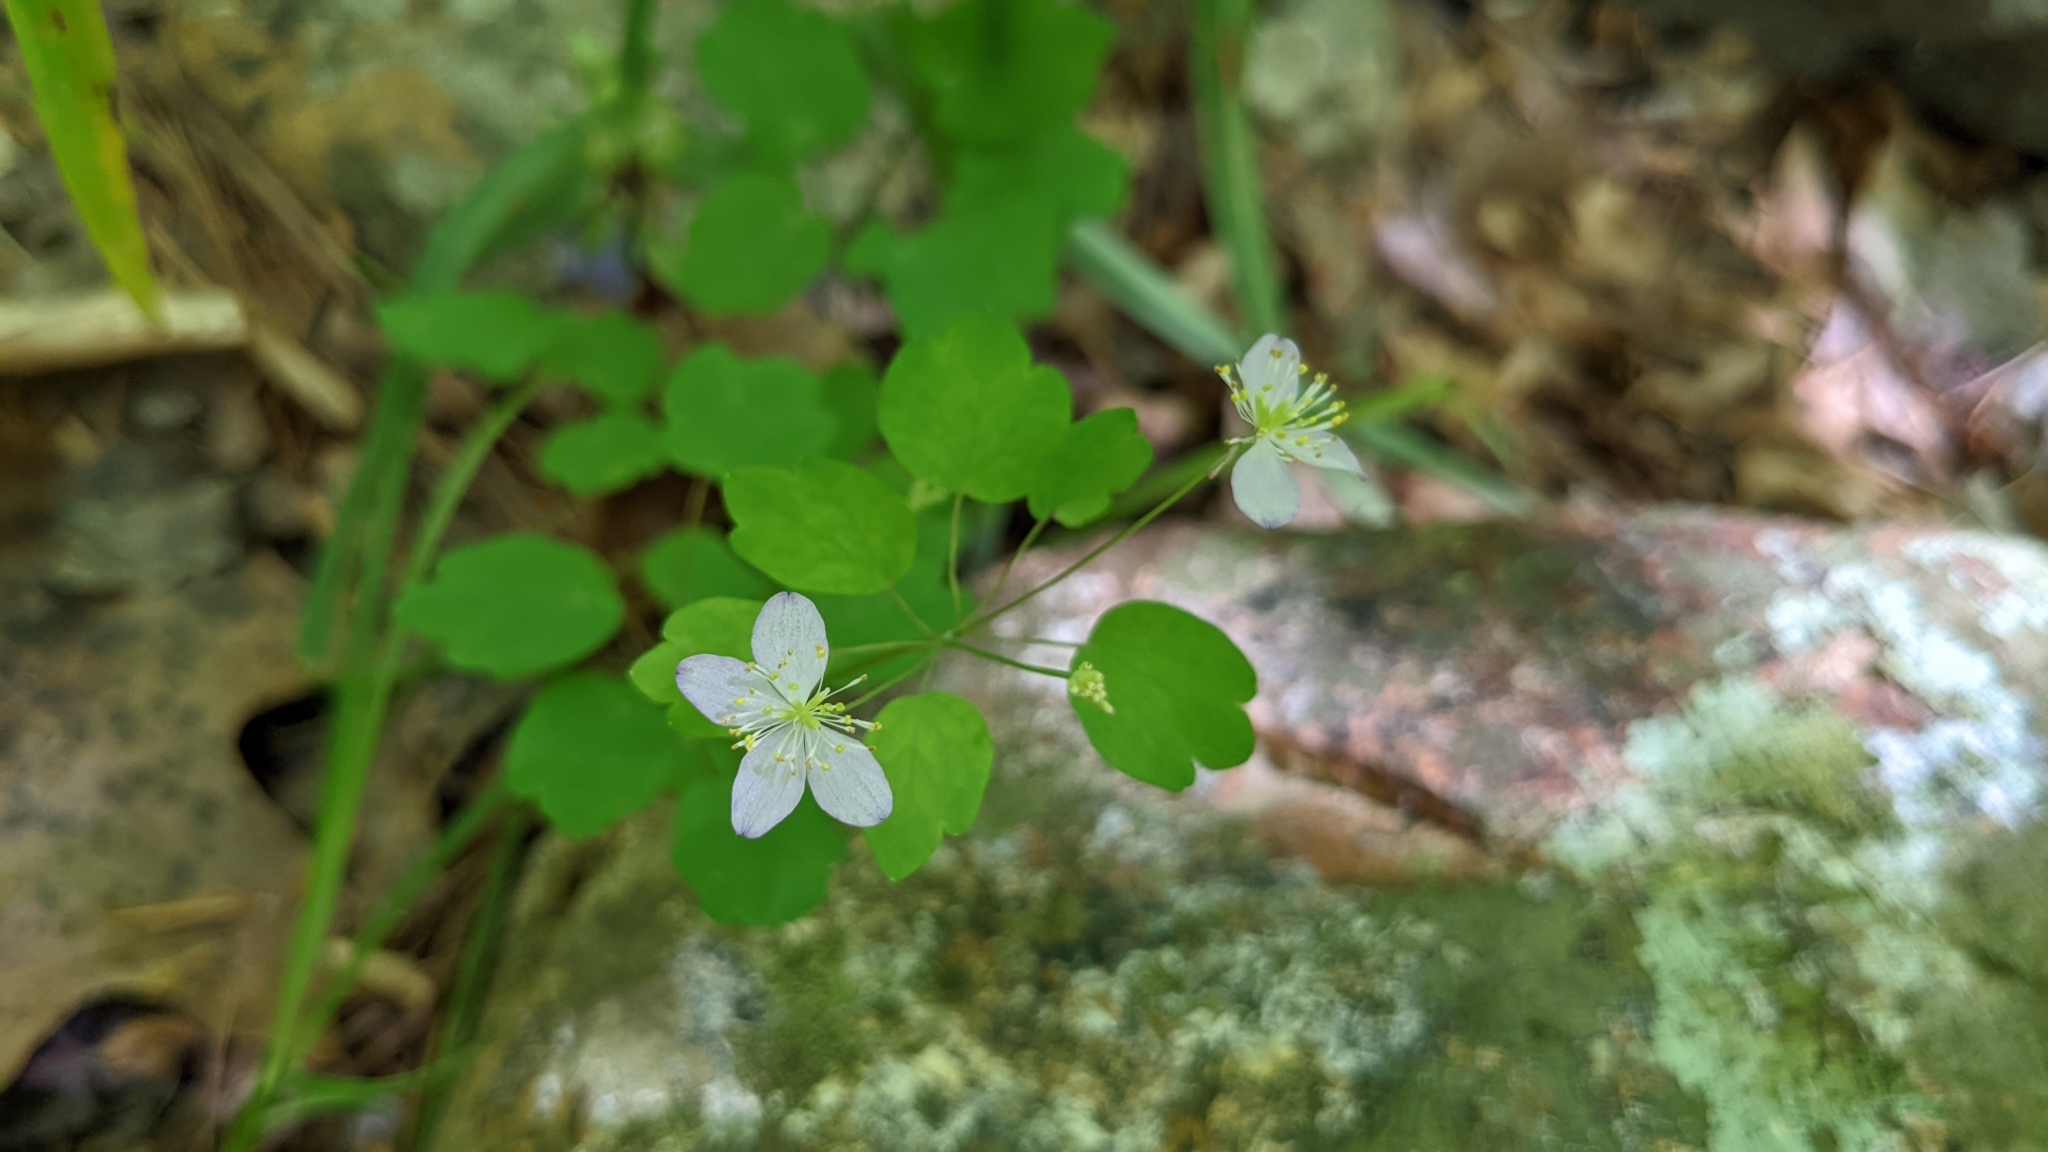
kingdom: Plantae
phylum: Tracheophyta
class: Magnoliopsida
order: Ranunculales
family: Ranunculaceae
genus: Thalictrum
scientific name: Thalictrum thalictroides
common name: Rue-anemone
